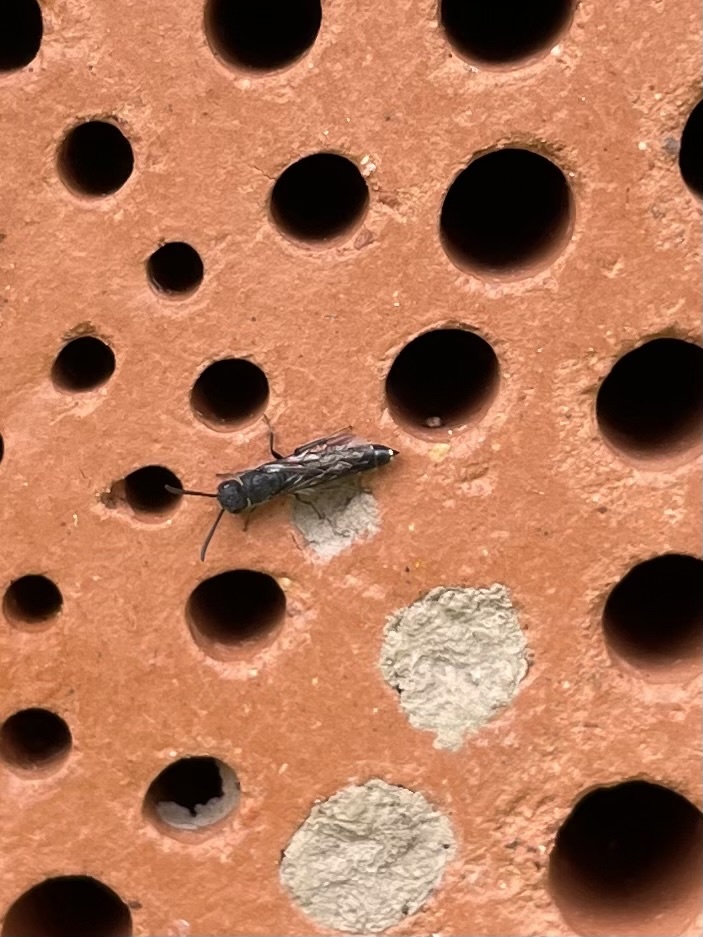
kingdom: Animalia
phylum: Arthropoda
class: Insecta
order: Hymenoptera
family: Sapygidae
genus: Sapygina
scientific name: Sapygina decemguttata
